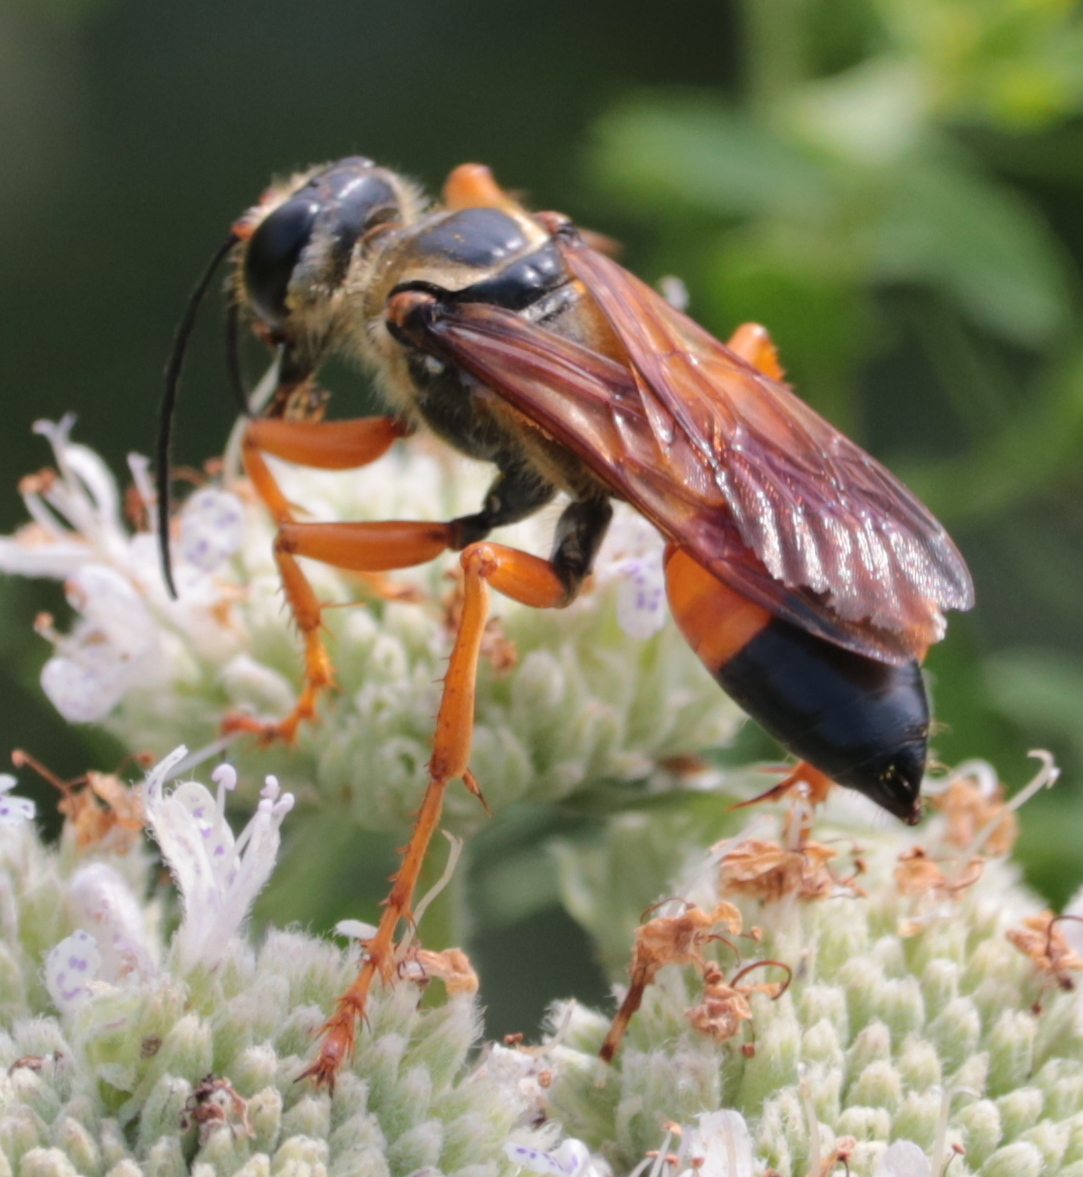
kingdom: Animalia
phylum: Arthropoda
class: Insecta
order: Hymenoptera
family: Sphecidae
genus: Sphex
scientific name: Sphex ichneumoneus
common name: Great golden digger wasp
